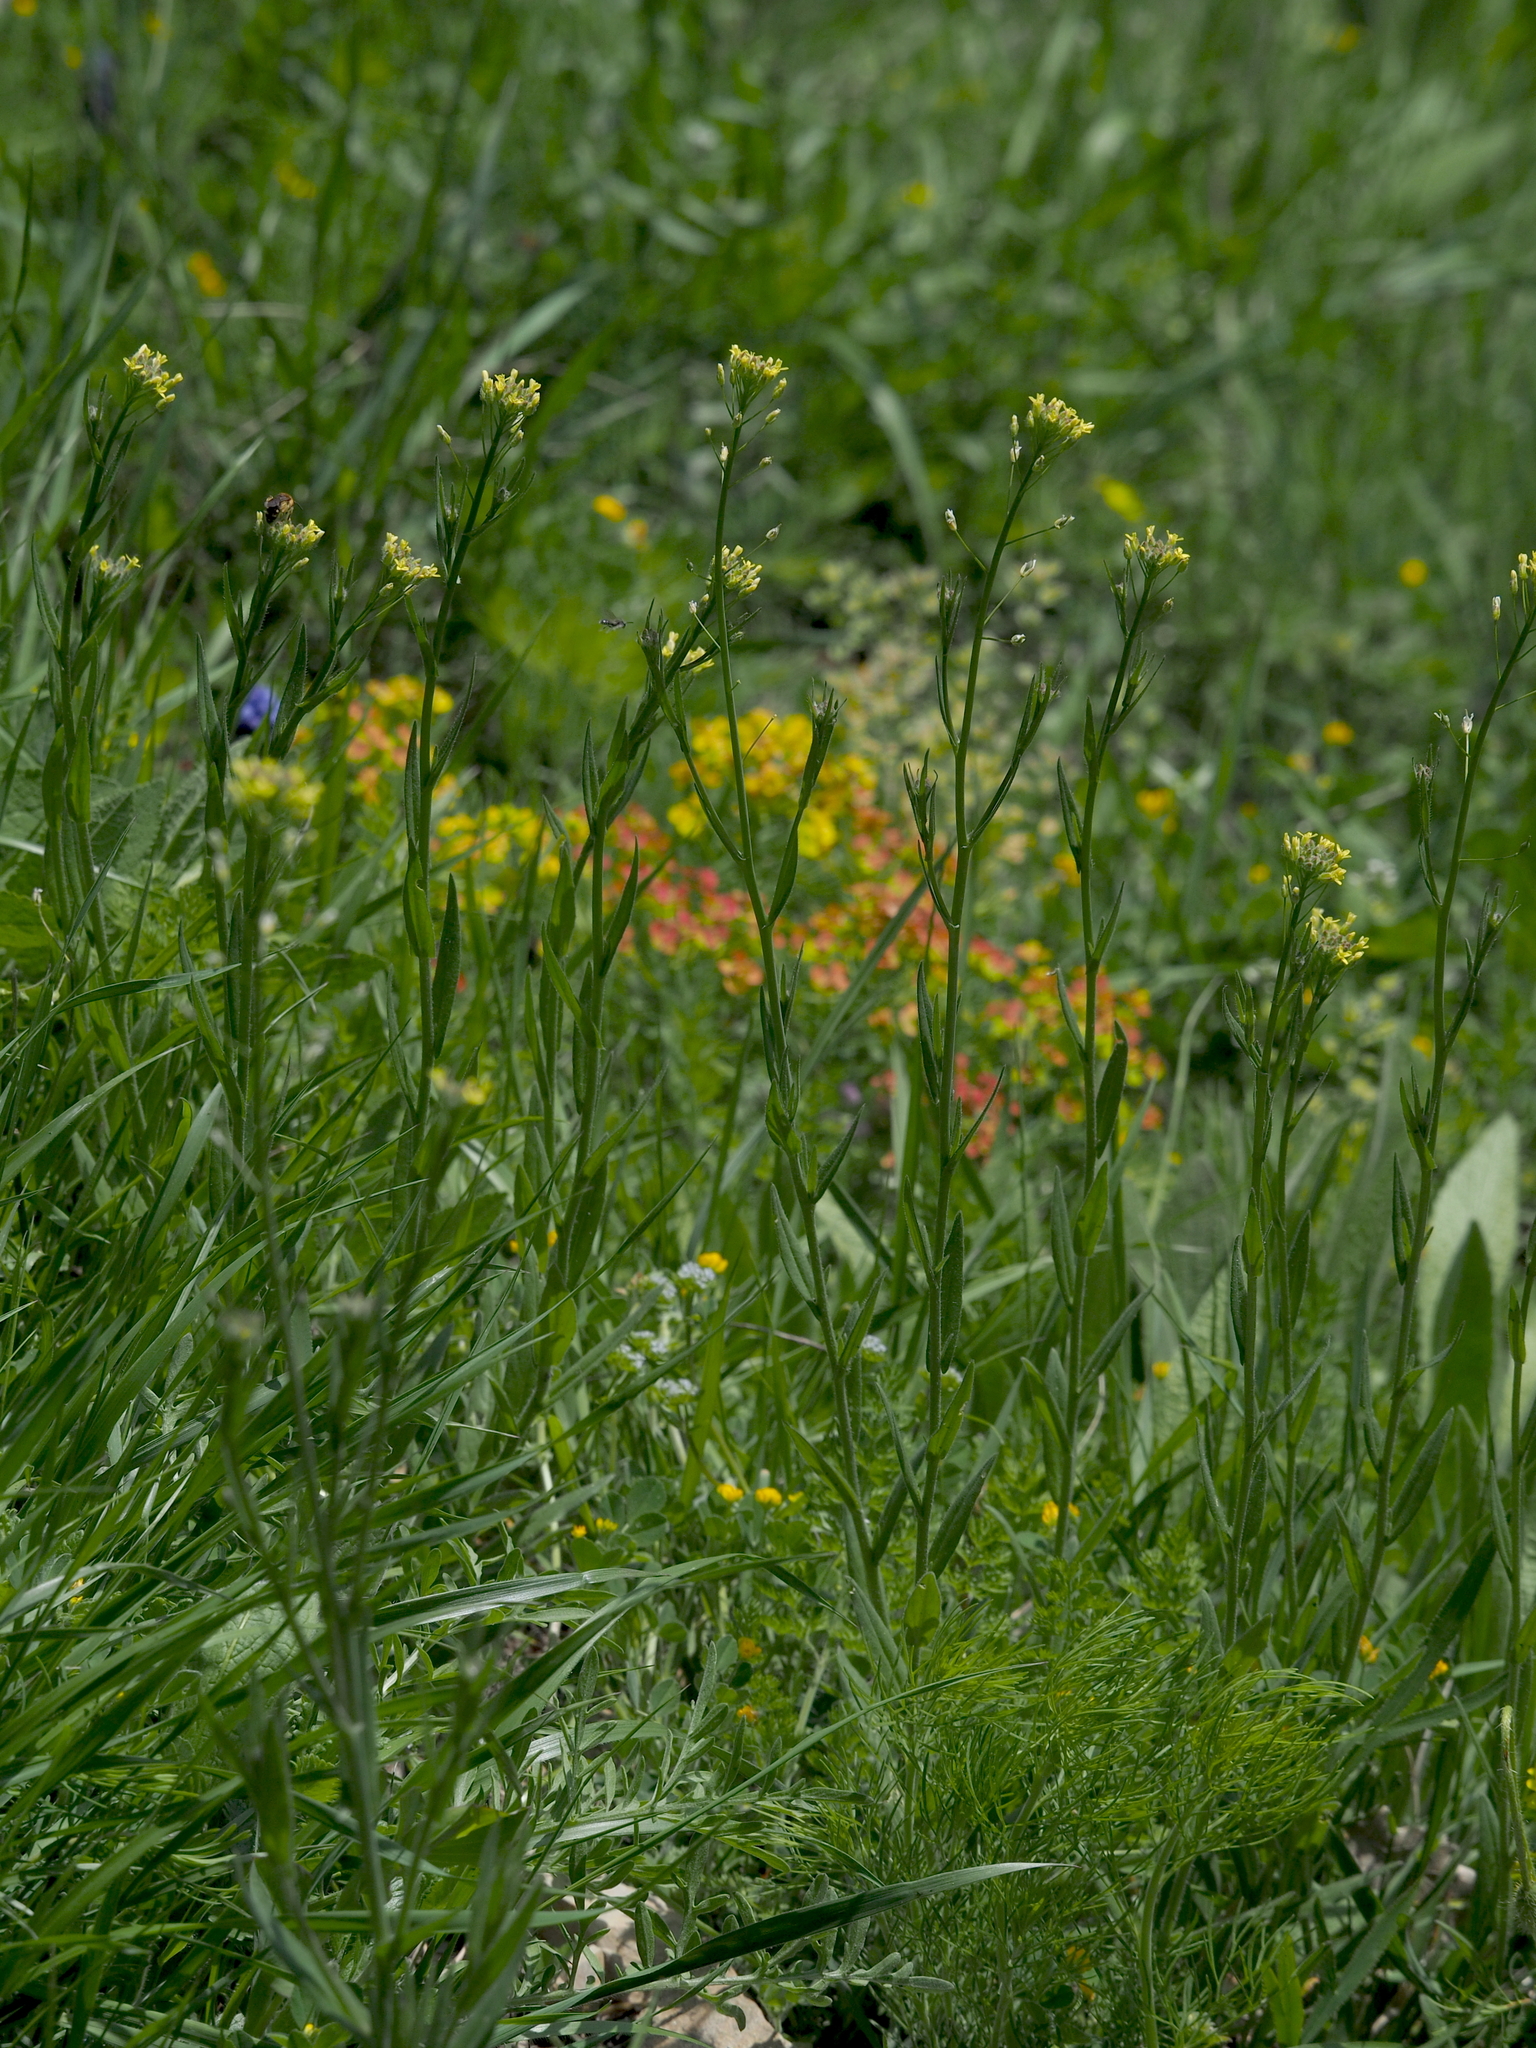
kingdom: Plantae
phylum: Tracheophyta
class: Magnoliopsida
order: Brassicales
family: Brassicaceae
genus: Camelina
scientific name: Camelina microcarpa
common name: Lesser gold-of-pleasure
